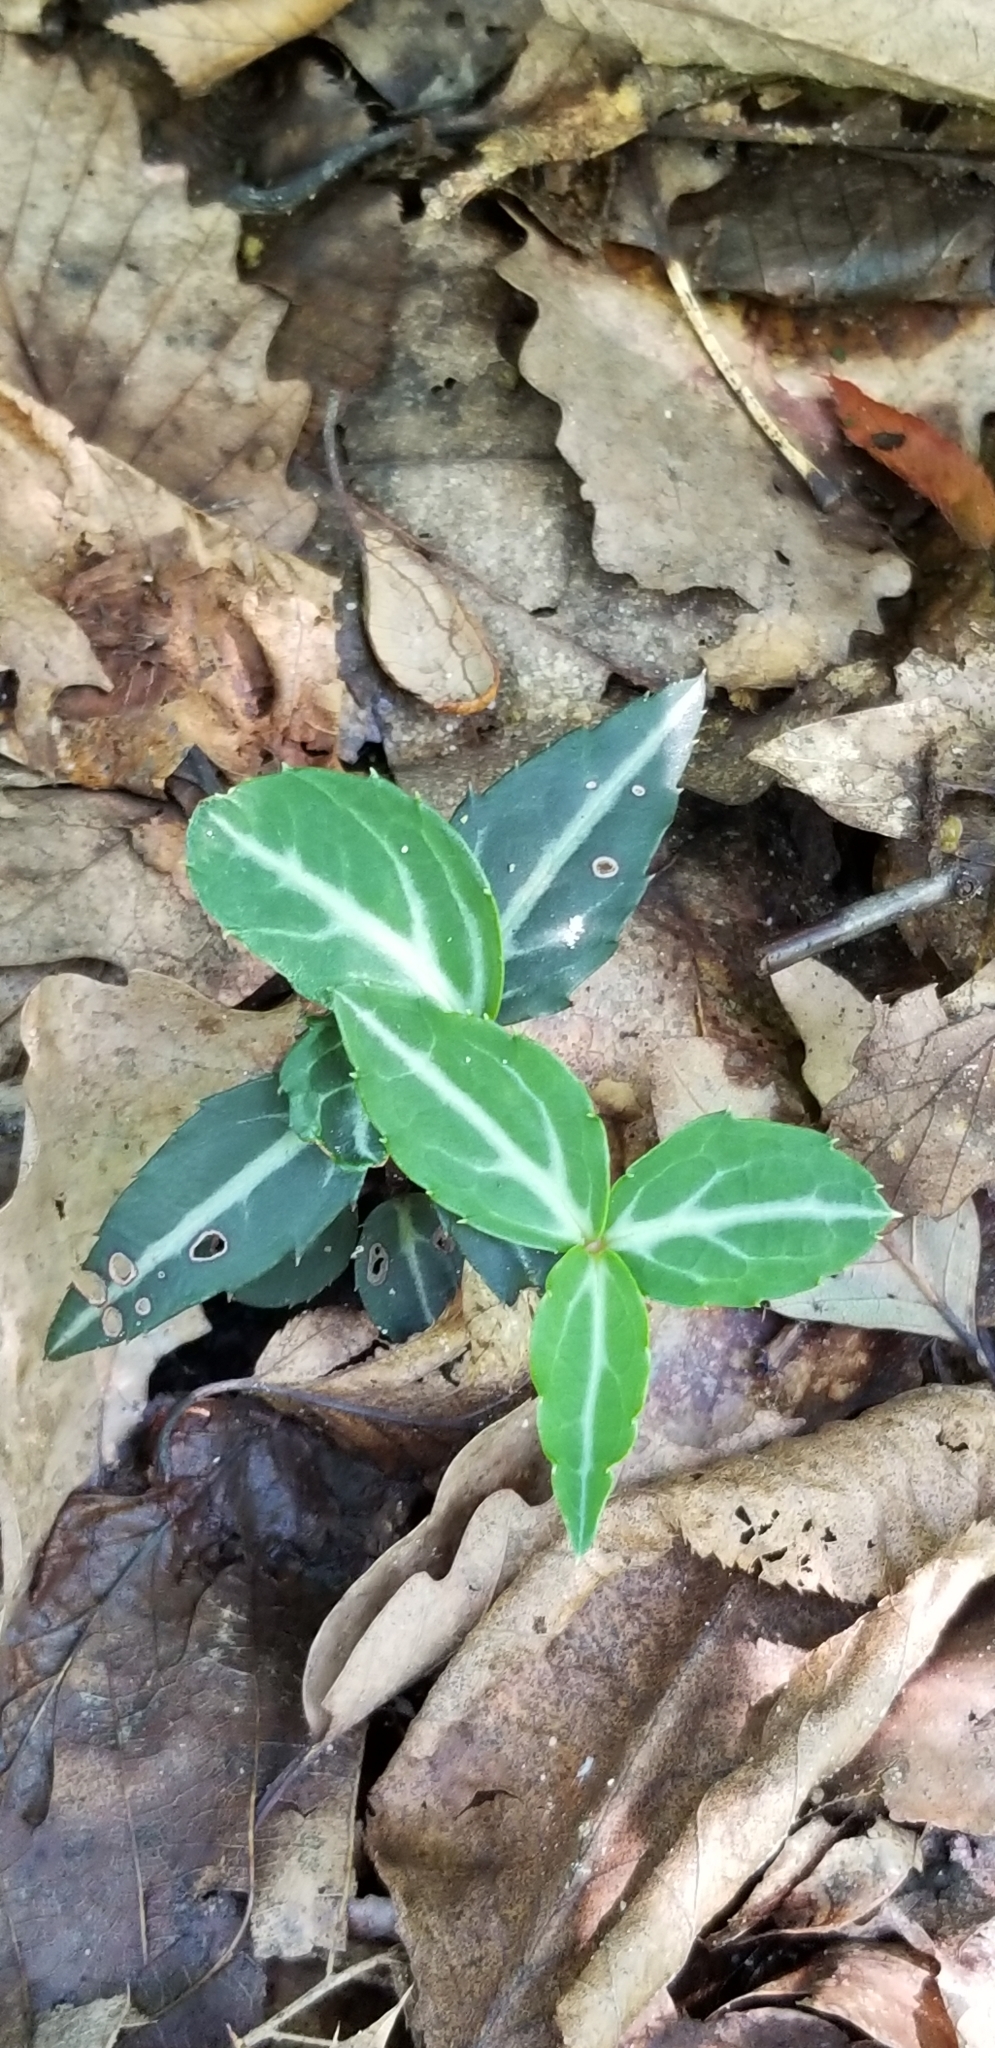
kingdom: Plantae
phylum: Tracheophyta
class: Magnoliopsida
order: Ericales
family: Ericaceae
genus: Chimaphila
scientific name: Chimaphila maculata
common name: Spotted pipsissewa
